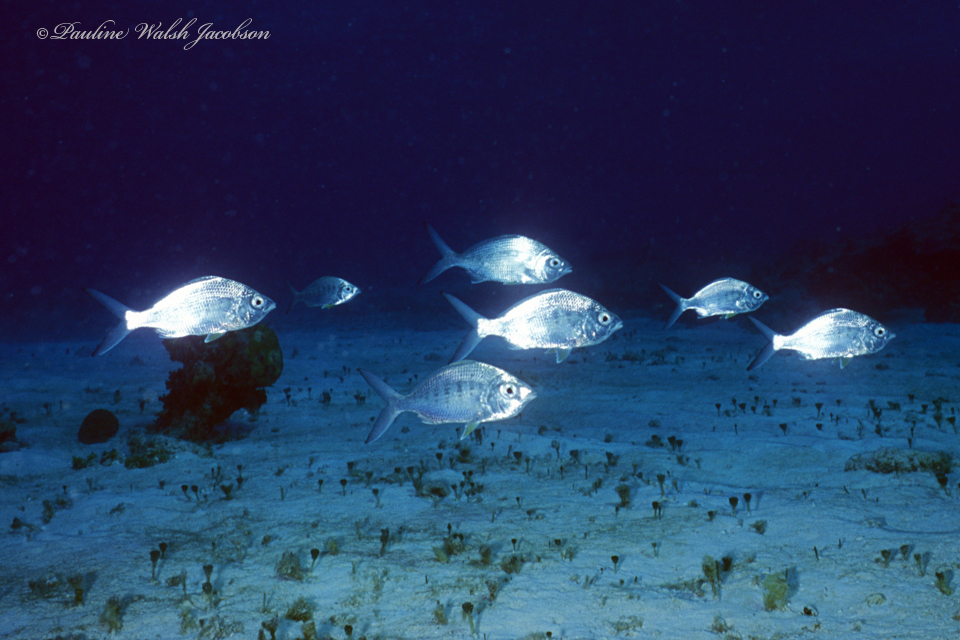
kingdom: Animalia
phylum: Chordata
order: Perciformes
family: Gerreidae
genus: Gerres
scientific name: Gerres cinereus
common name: Hedow
